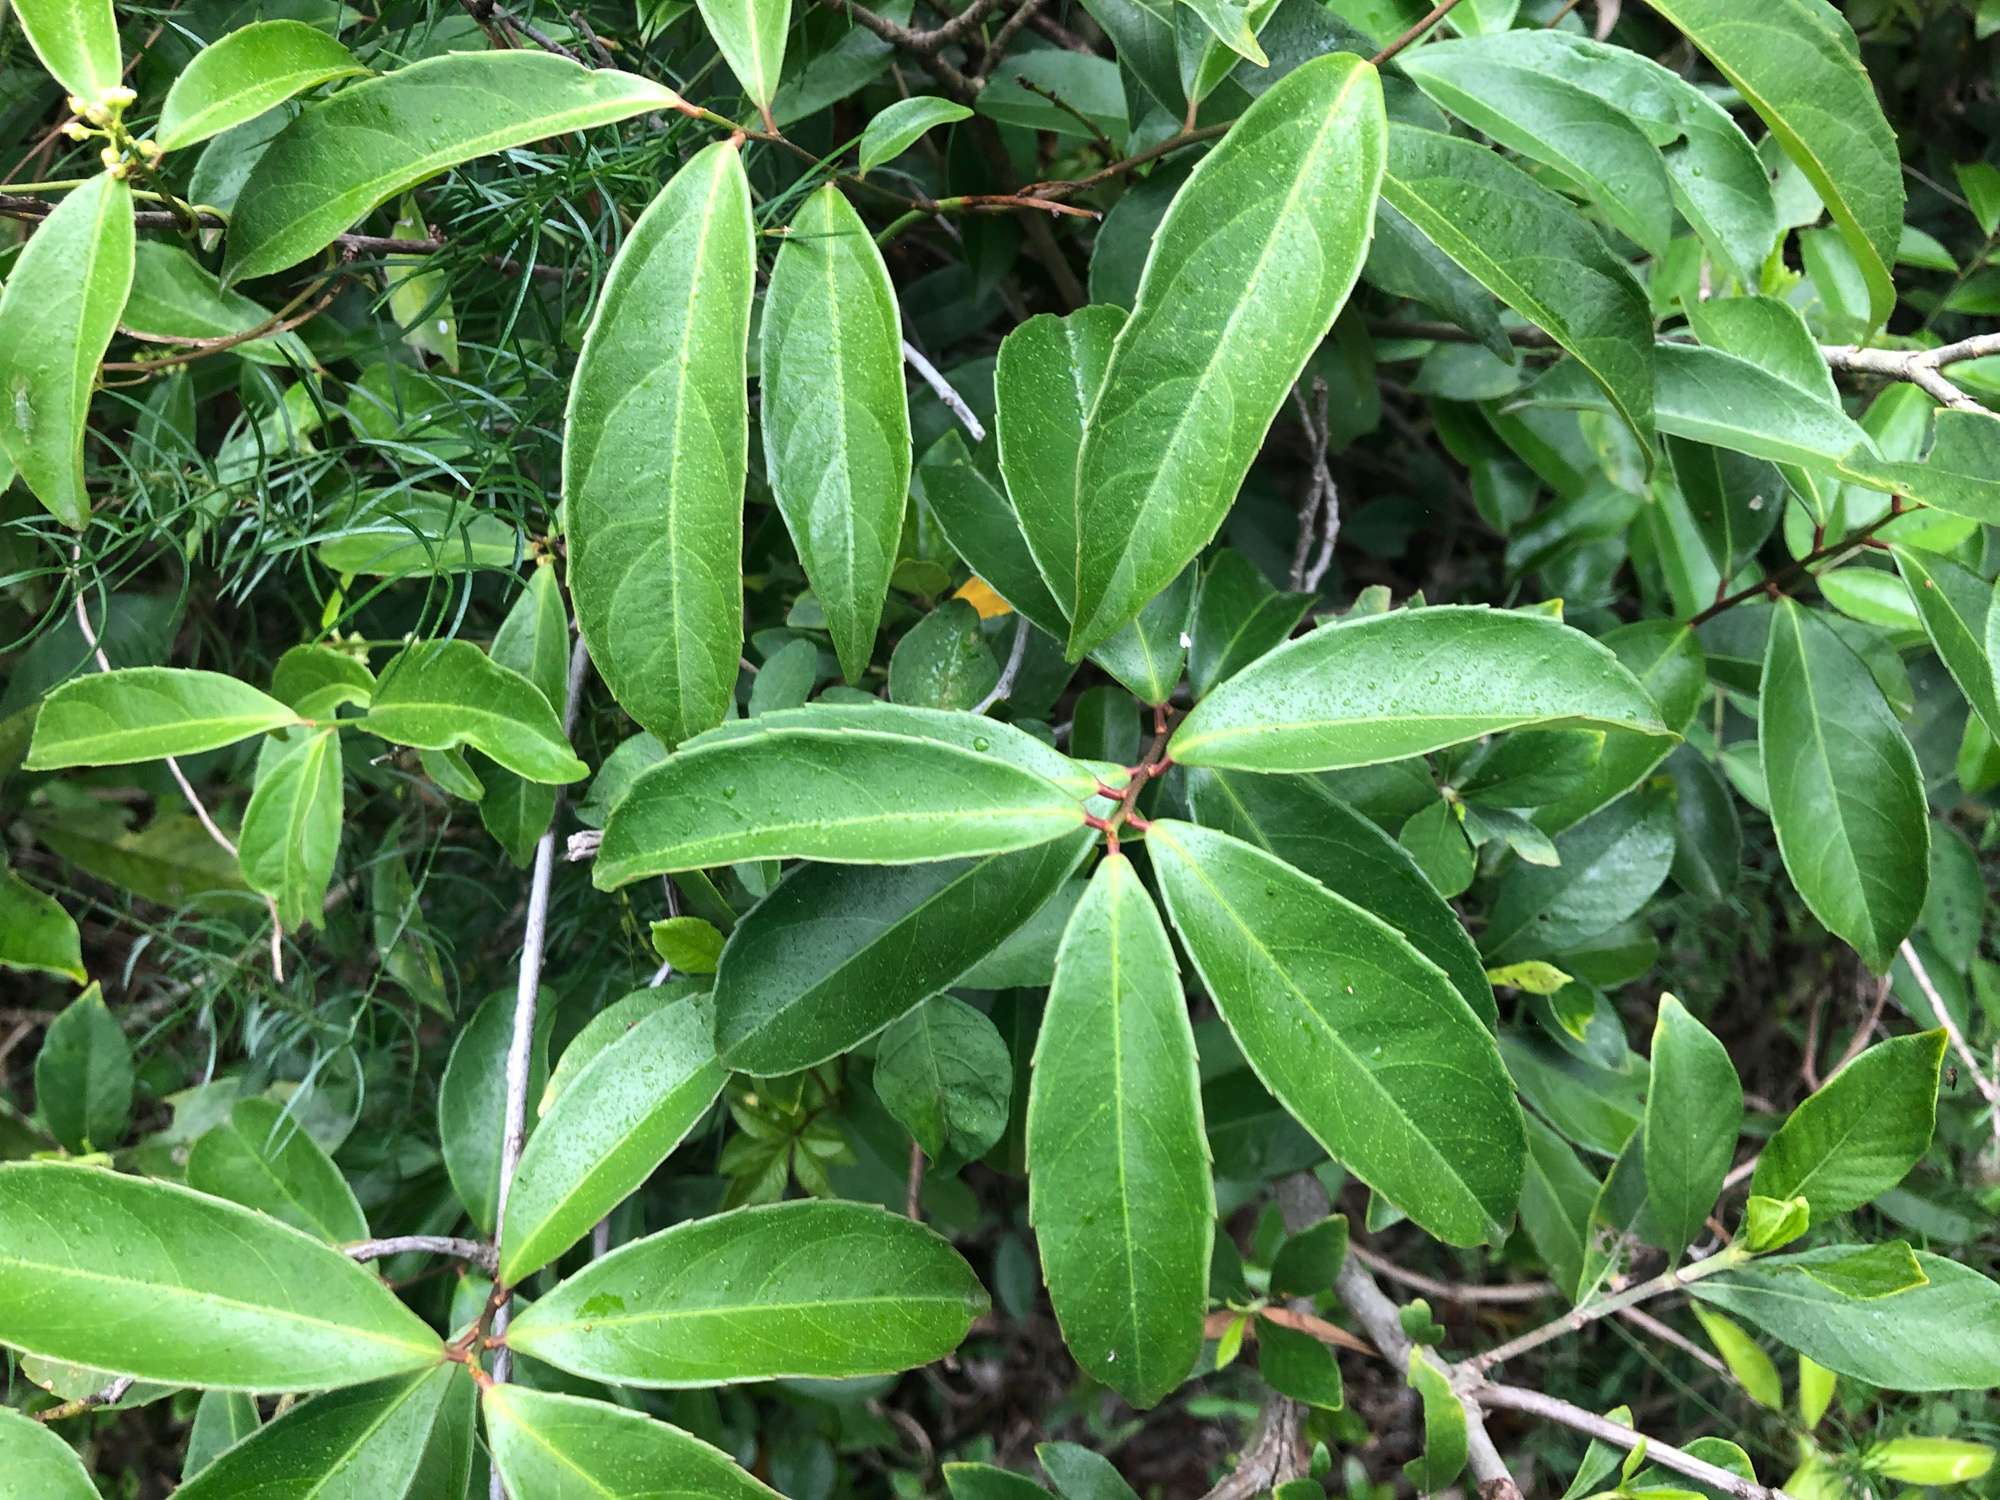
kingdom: Plantae
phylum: Tracheophyta
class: Magnoliopsida
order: Celastrales
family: Celastraceae
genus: Celastrus
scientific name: Celastrus hindsii
